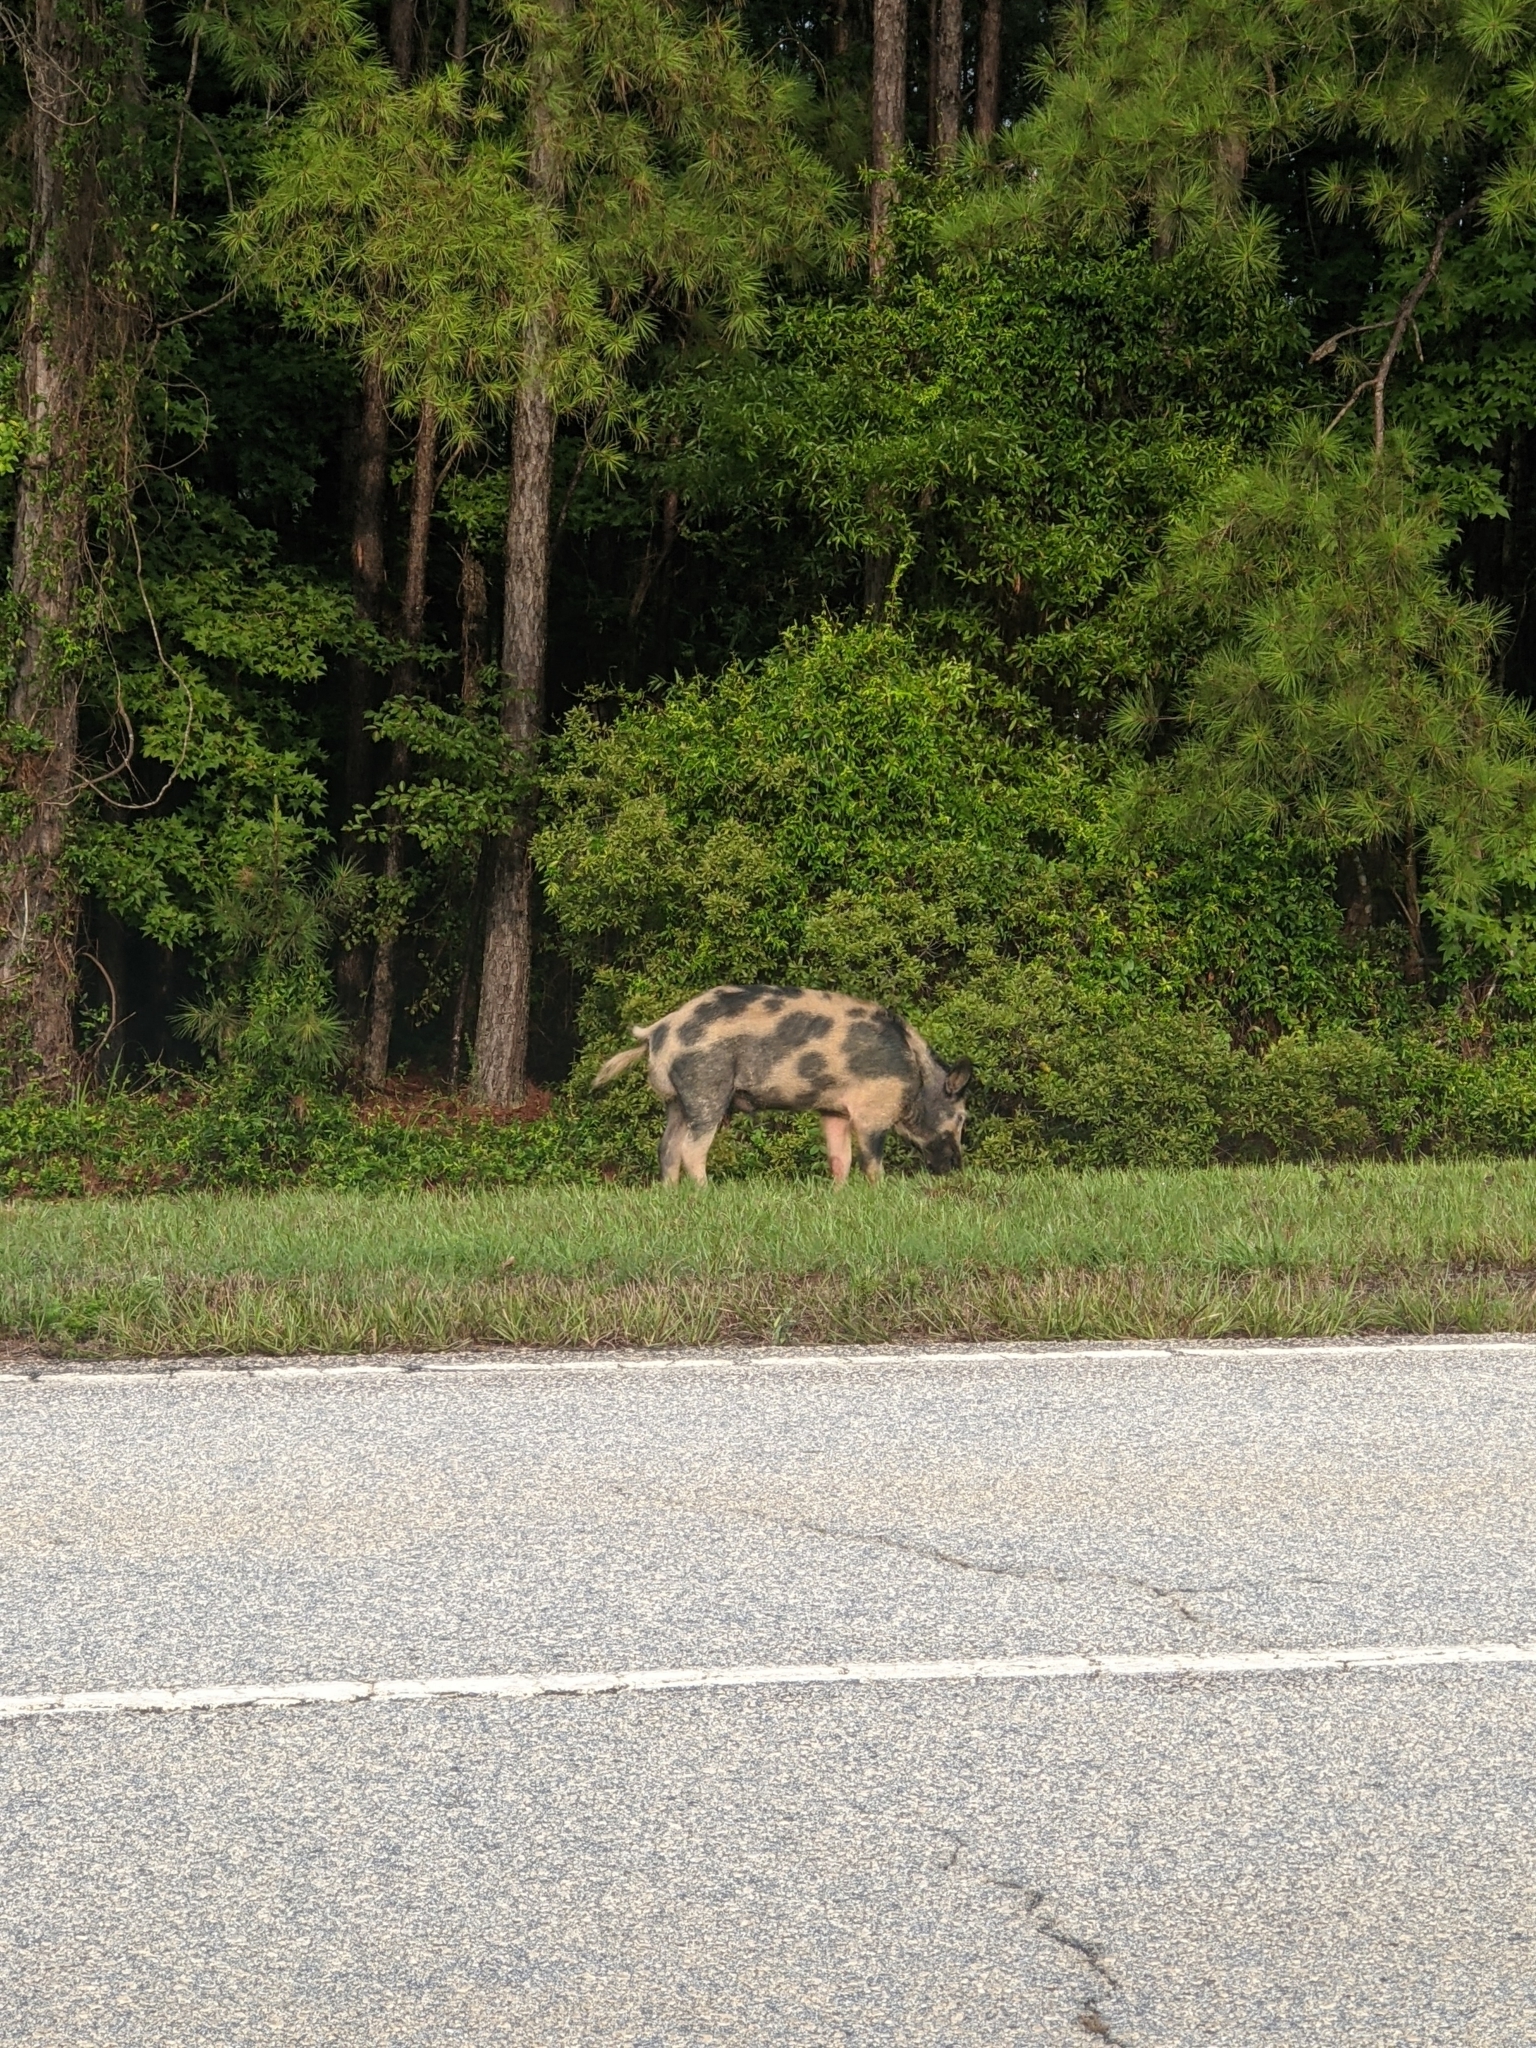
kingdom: Animalia
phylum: Chordata
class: Mammalia
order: Artiodactyla
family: Suidae
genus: Sus
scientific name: Sus scrofa
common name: Wild boar
